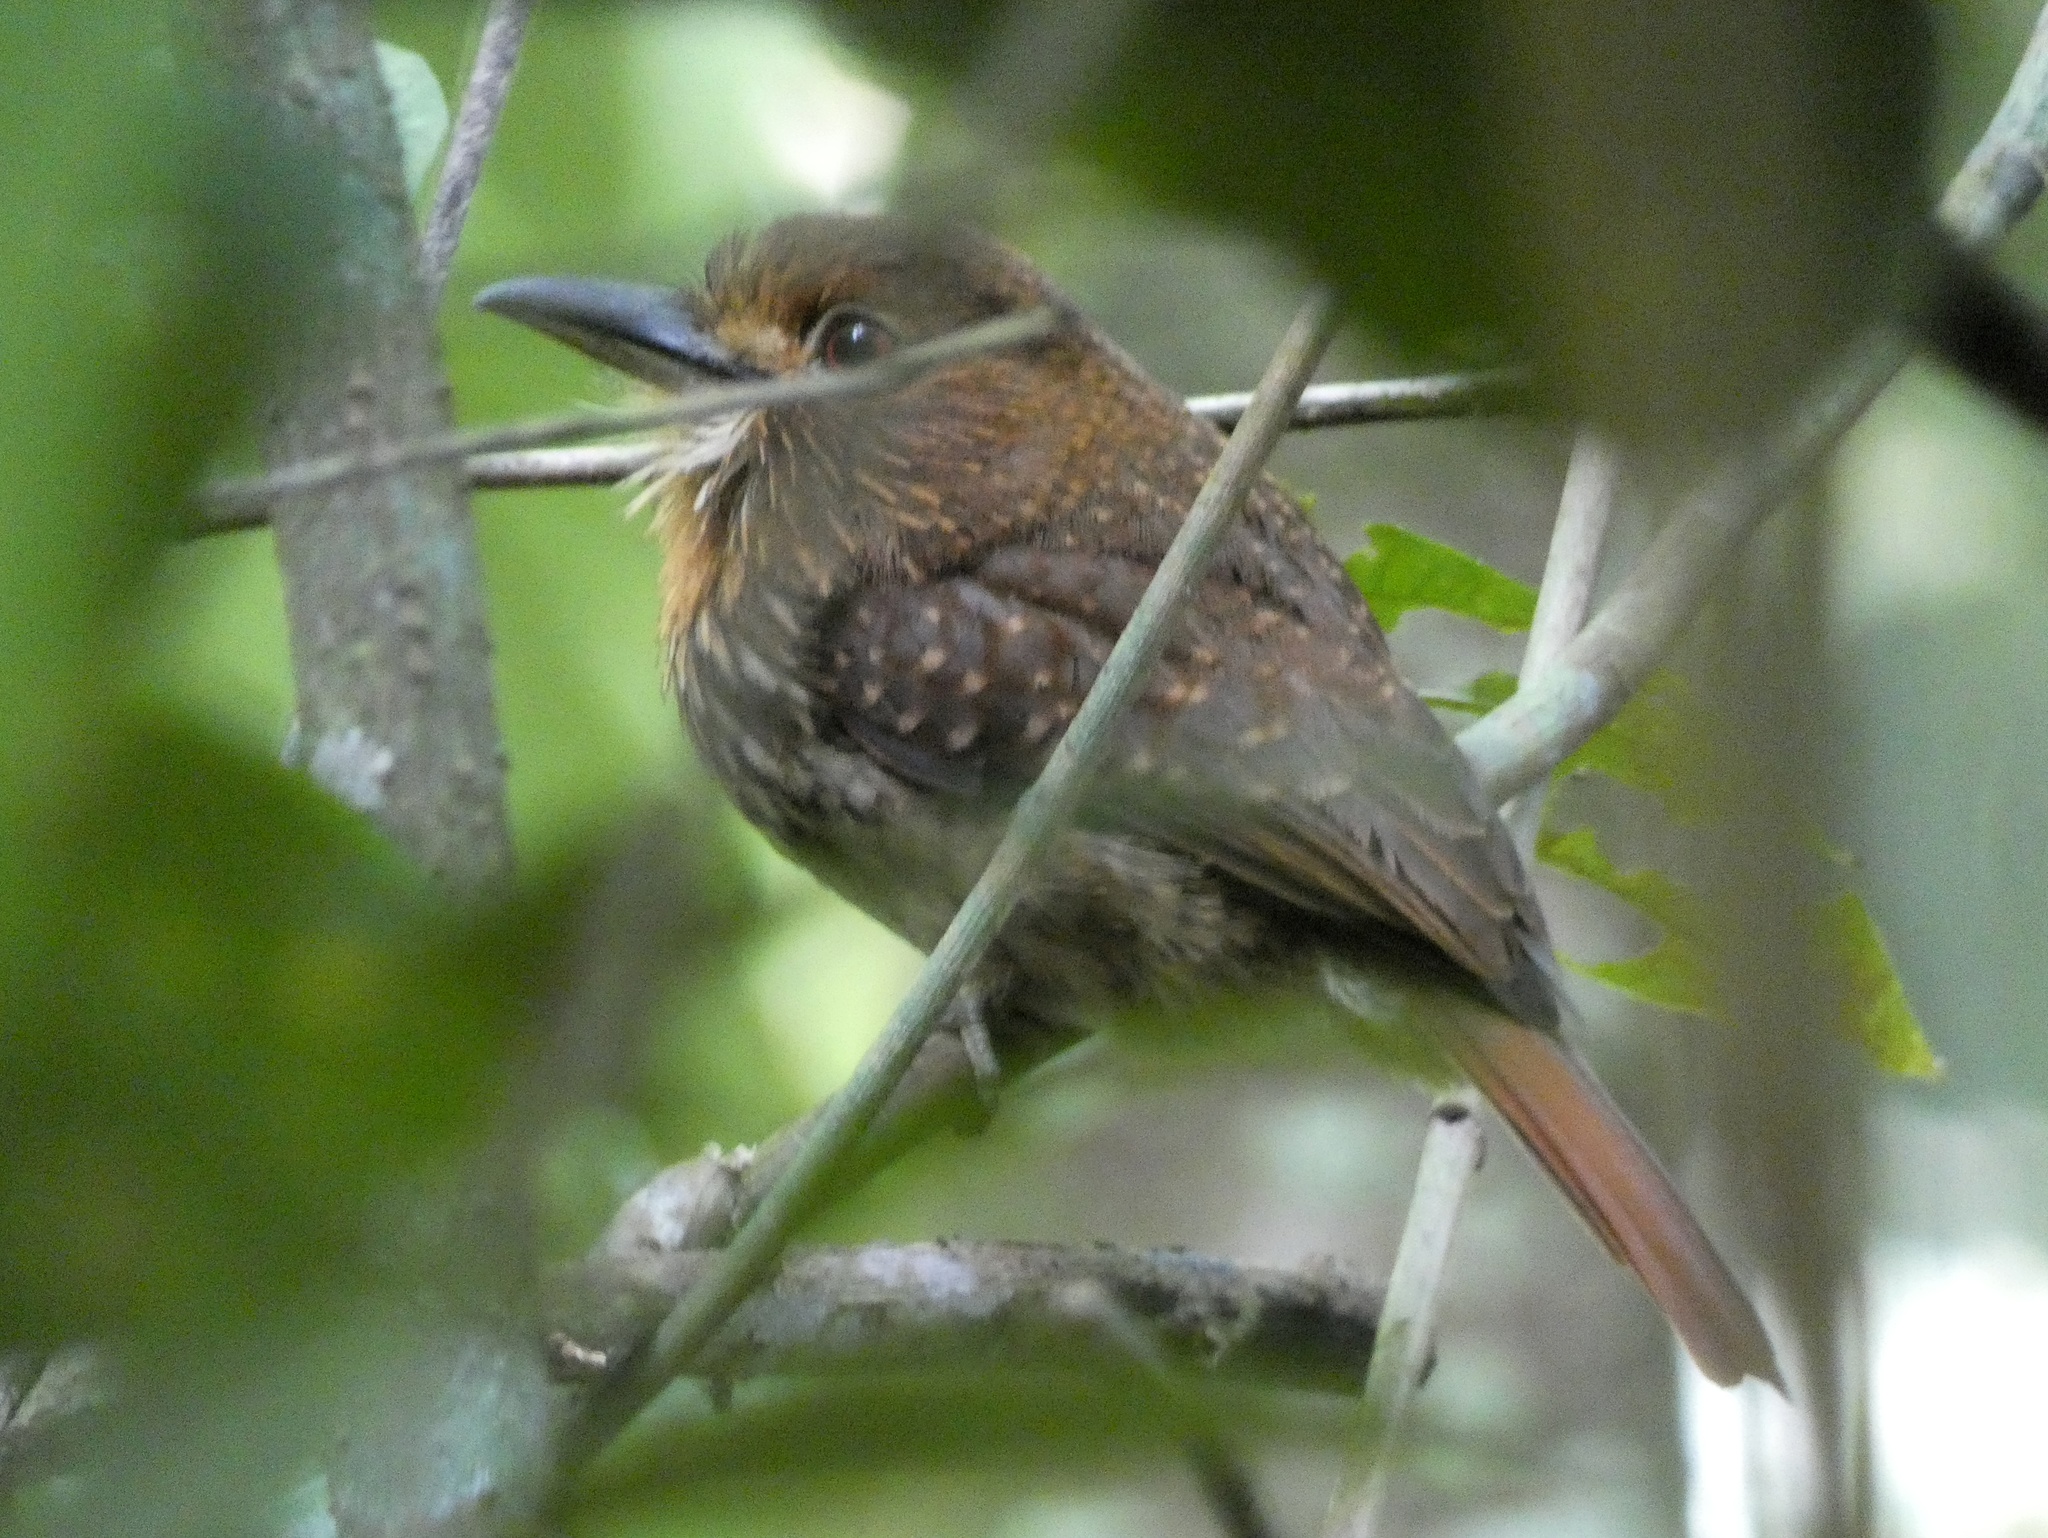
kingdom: Animalia
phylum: Chordata
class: Aves
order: Piciformes
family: Bucconidae
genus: Malacoptila
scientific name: Malacoptila panamensis
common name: White-whiskered puffbird
